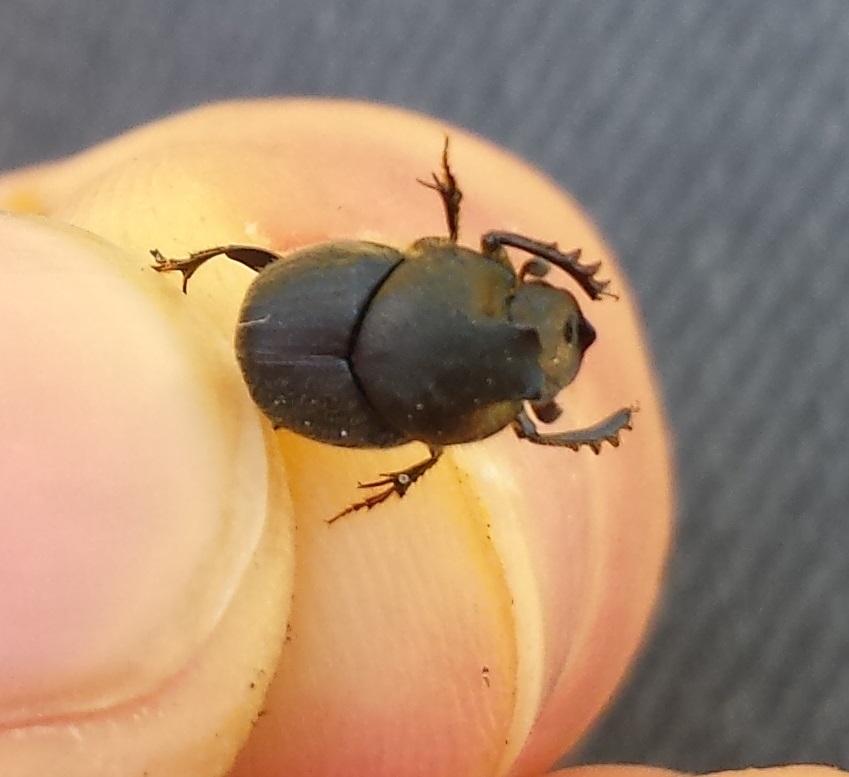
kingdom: Animalia
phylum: Arthropoda
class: Insecta
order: Coleoptera
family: Scarabaeidae
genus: Onthophagus
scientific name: Onthophagus hecate
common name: Scooped scarab
